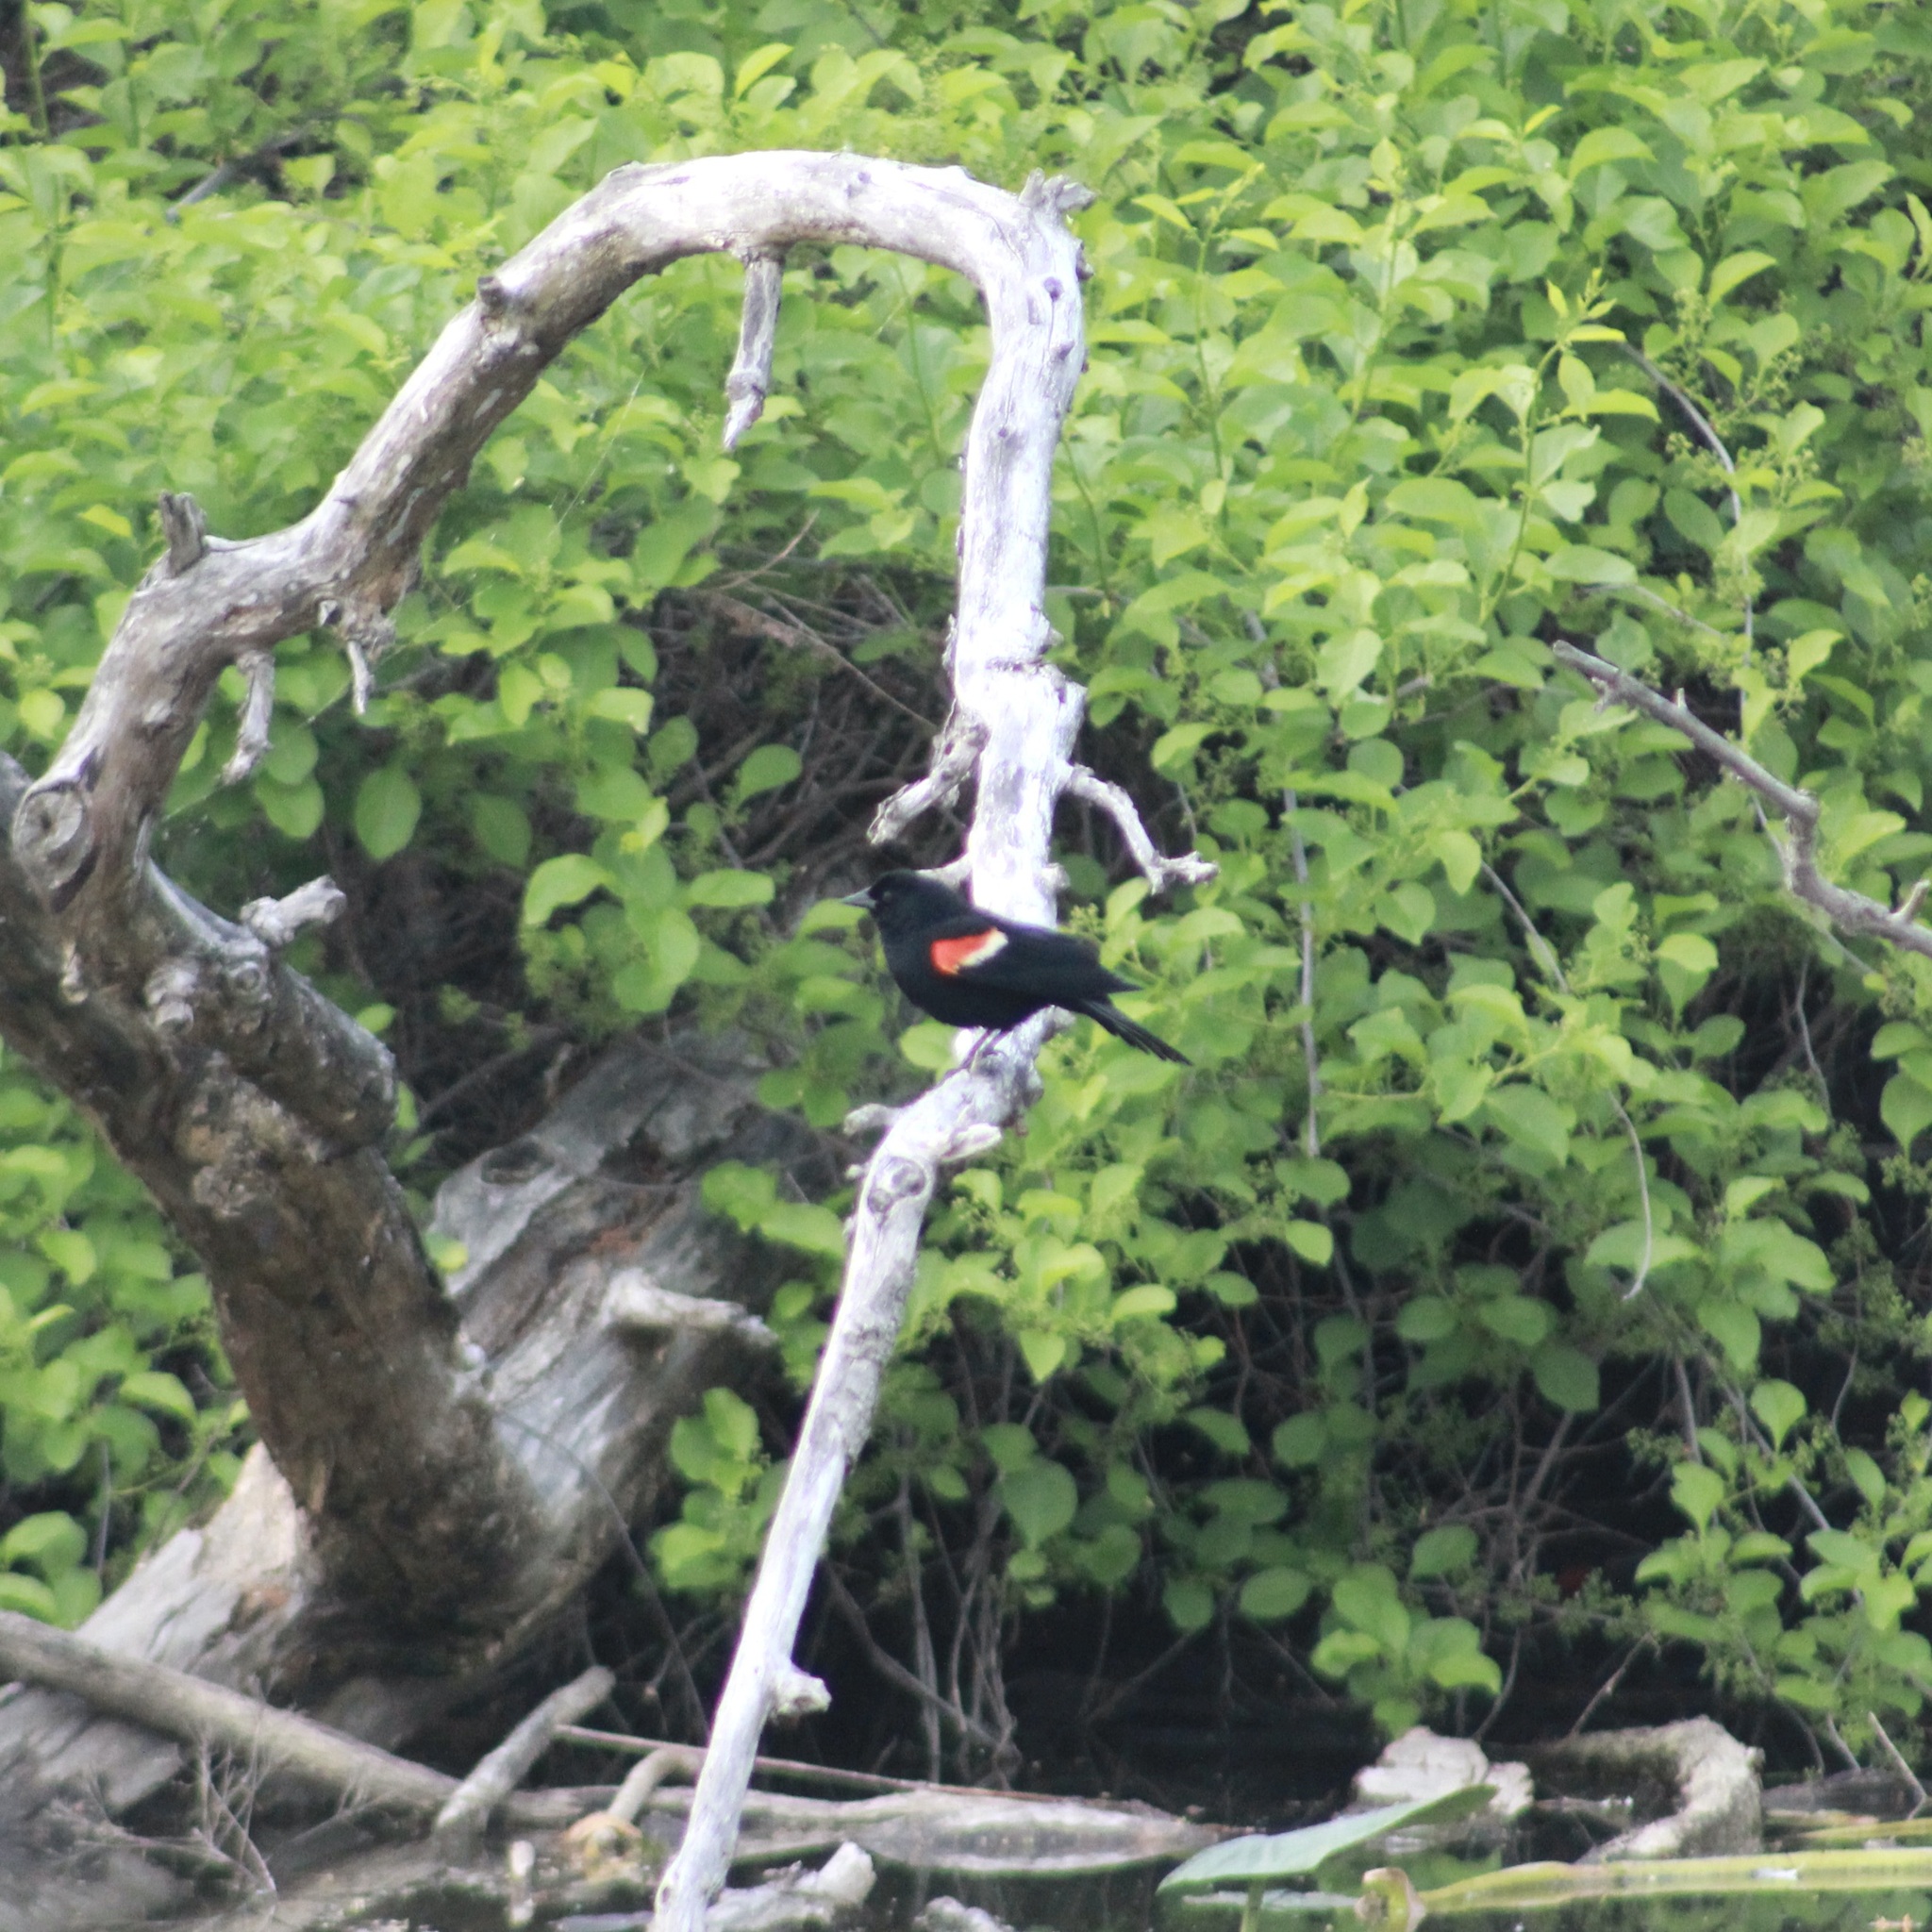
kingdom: Animalia
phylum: Chordata
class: Aves
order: Passeriformes
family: Icteridae
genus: Agelaius
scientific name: Agelaius phoeniceus
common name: Red-winged blackbird
